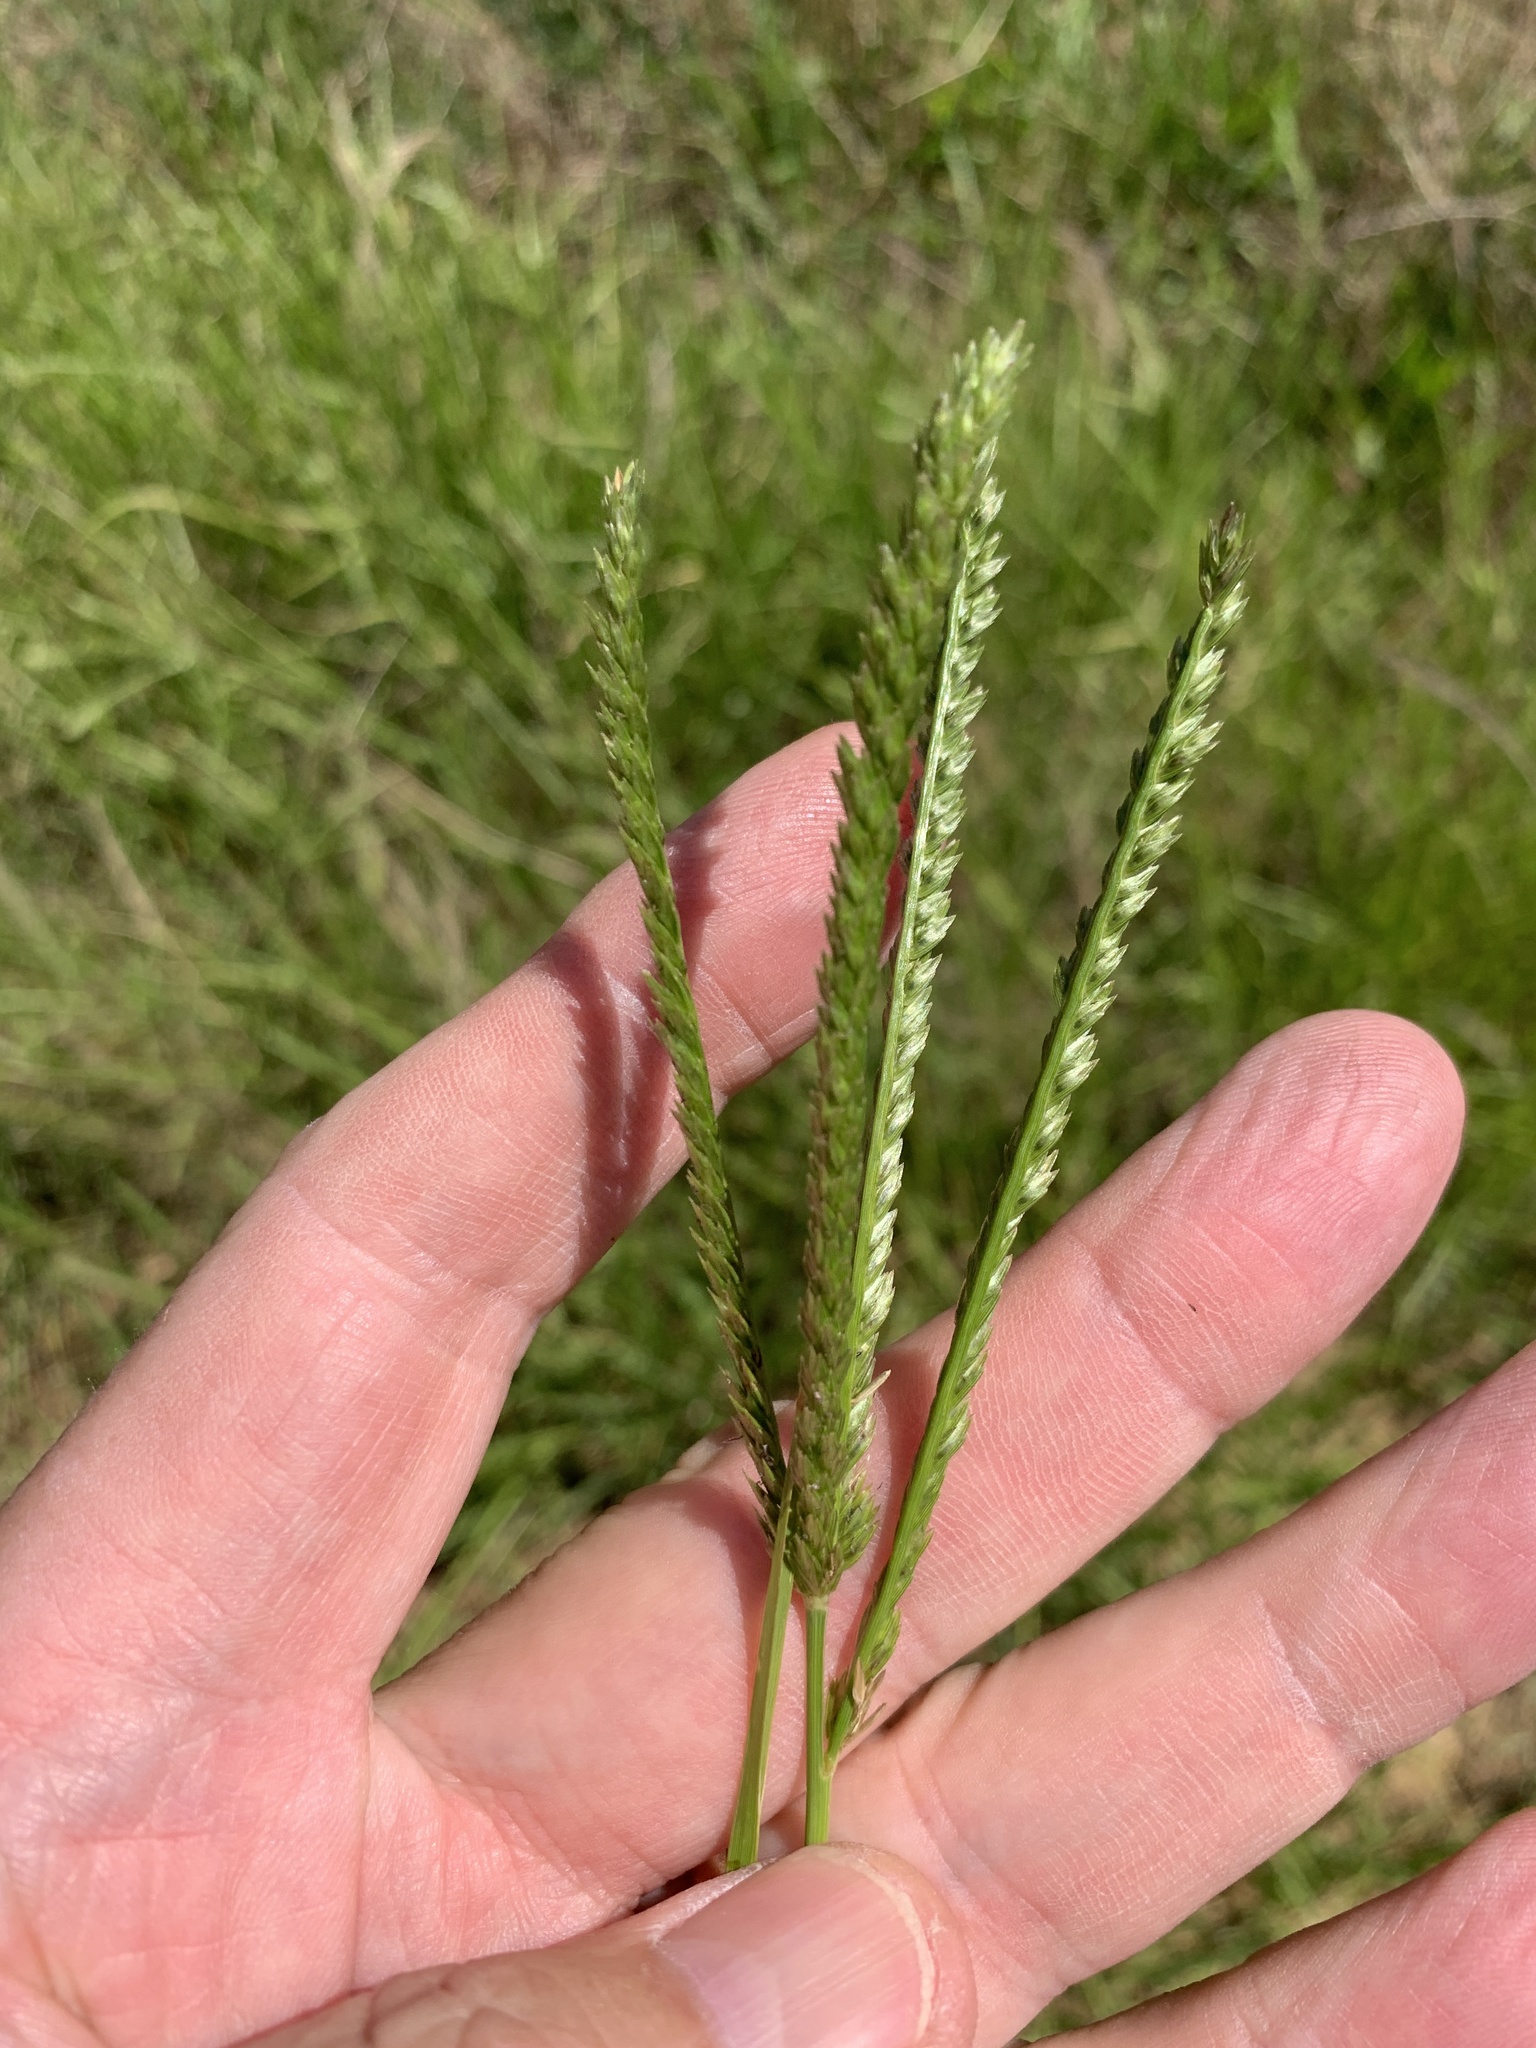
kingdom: Plantae
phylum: Tracheophyta
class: Liliopsida
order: Poales
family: Poaceae
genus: Eleusine
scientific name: Eleusine indica
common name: Yard-grass
